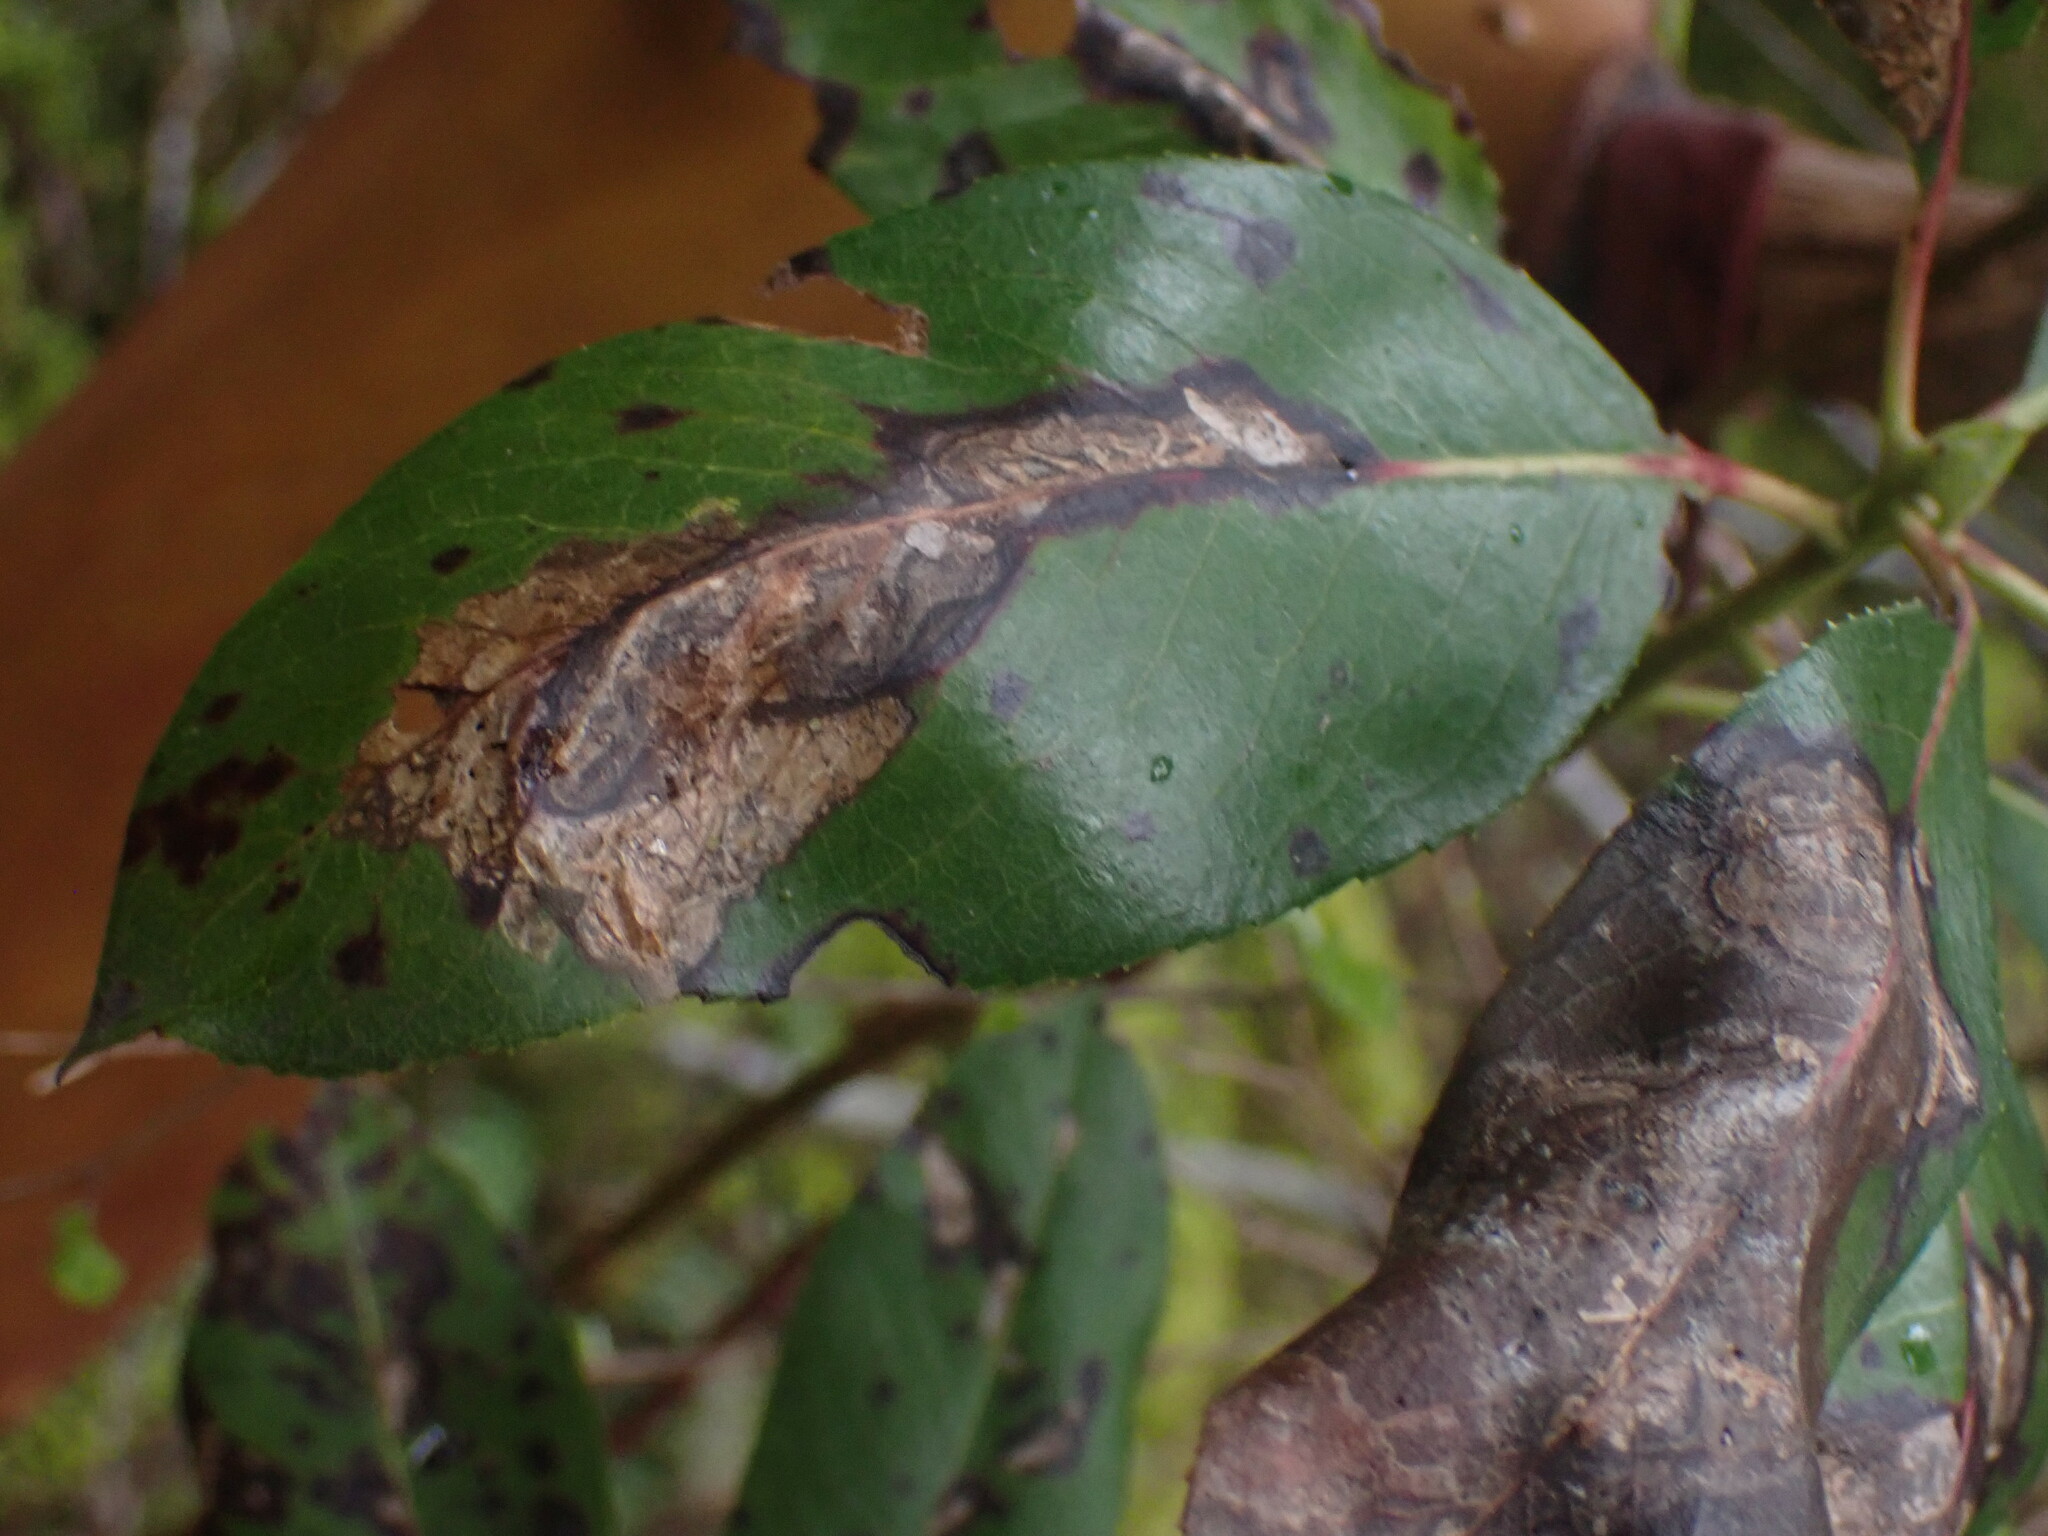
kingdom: Plantae
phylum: Tracheophyta
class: Magnoliopsida
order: Ericales
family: Ericaceae
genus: Arbutus
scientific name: Arbutus menziesii
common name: Pacific madrone
